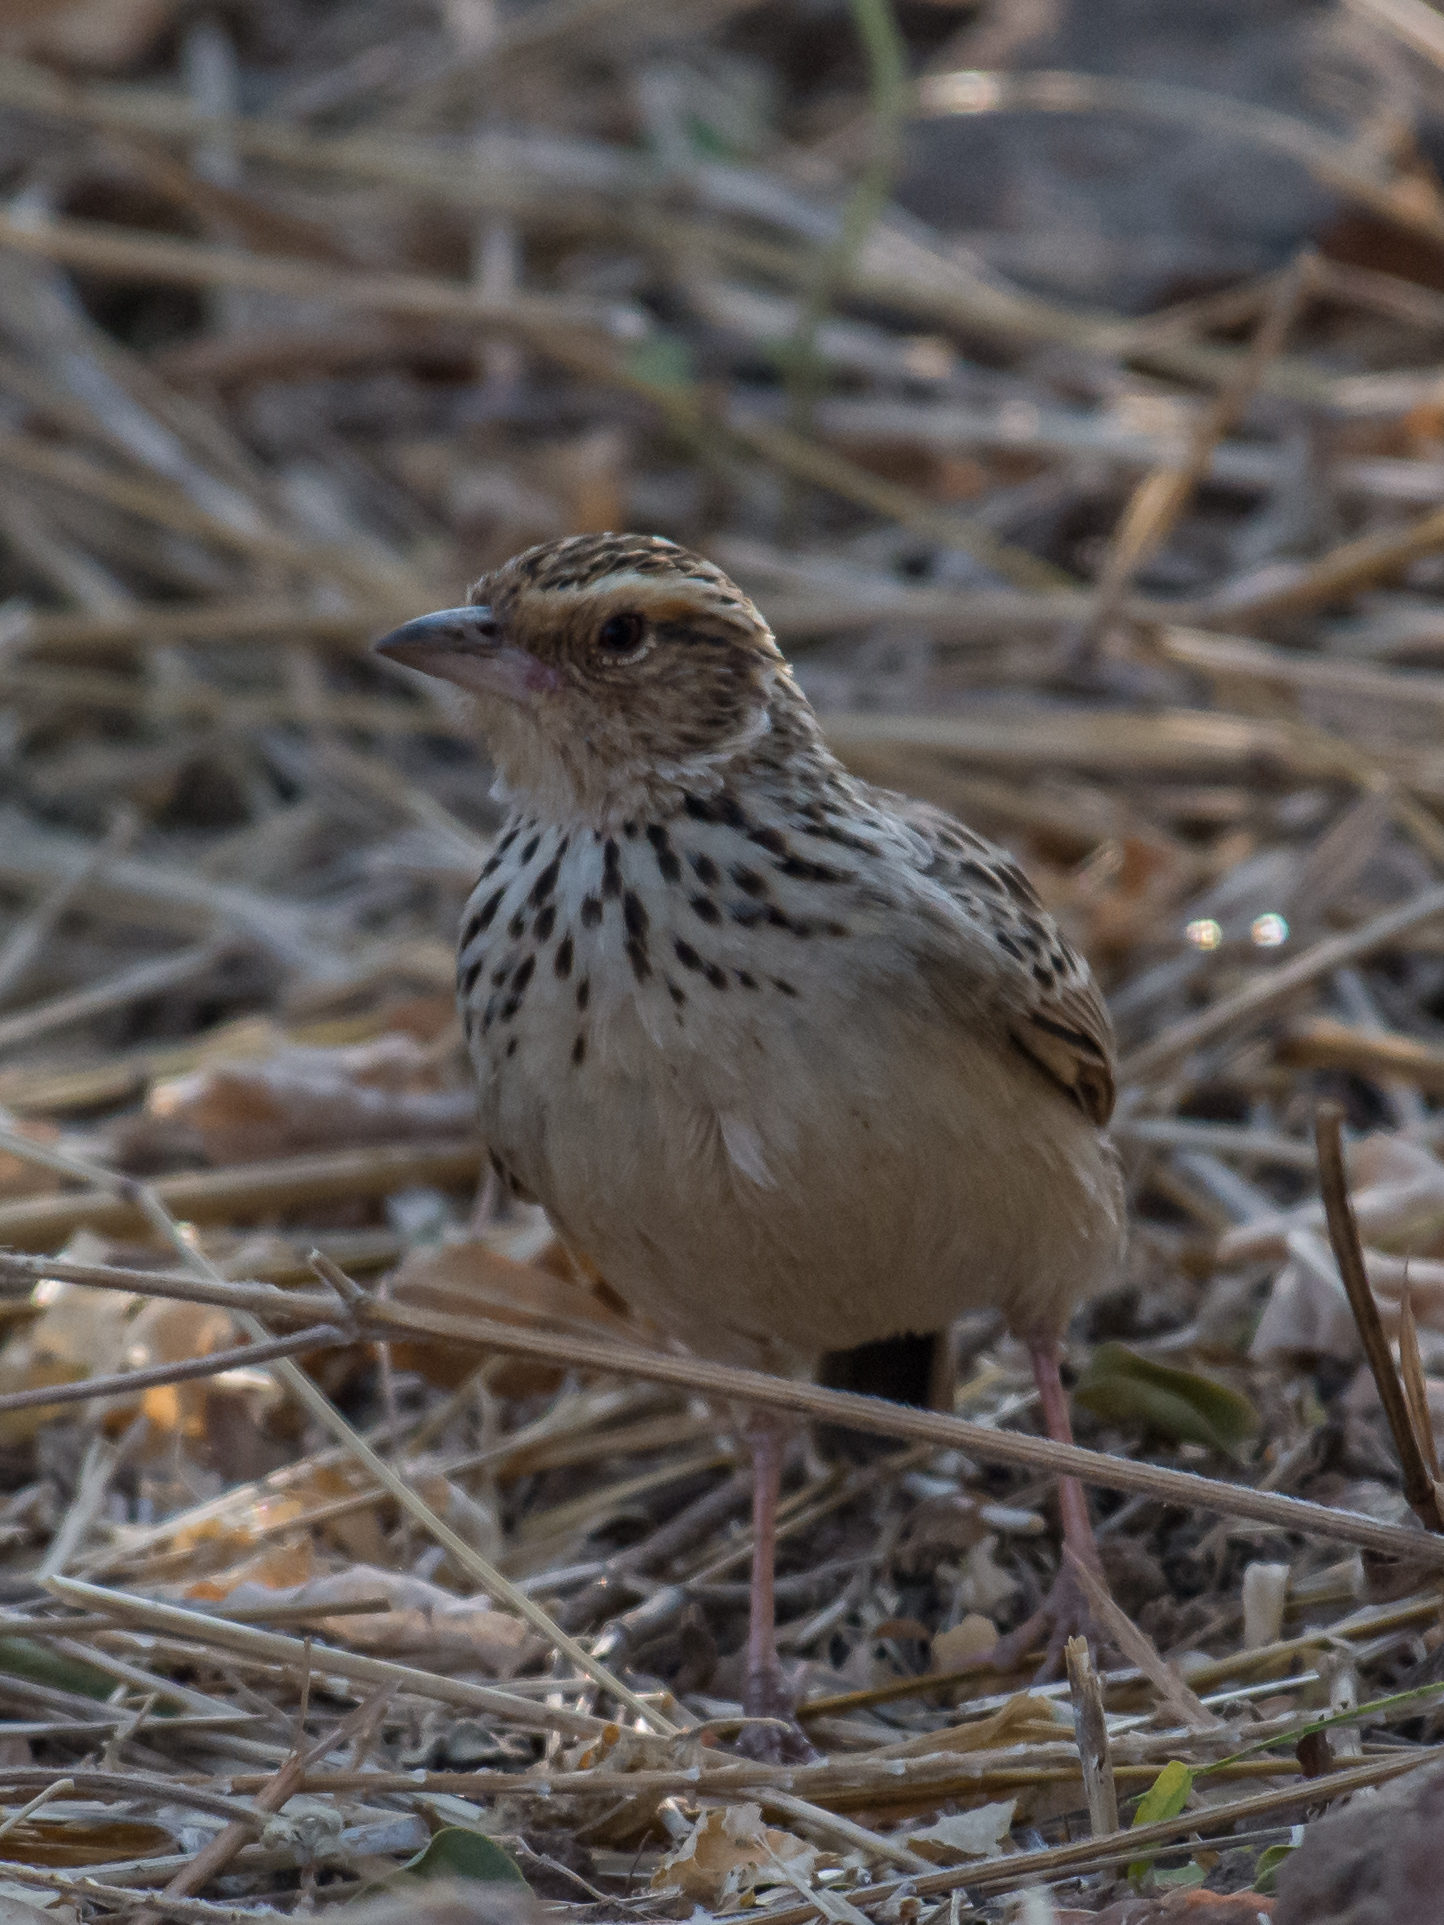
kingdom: Animalia
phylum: Chordata
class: Aves
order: Passeriformes
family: Alaudidae
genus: Mirafra
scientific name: Mirafra microptera
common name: Burmese bushlark
